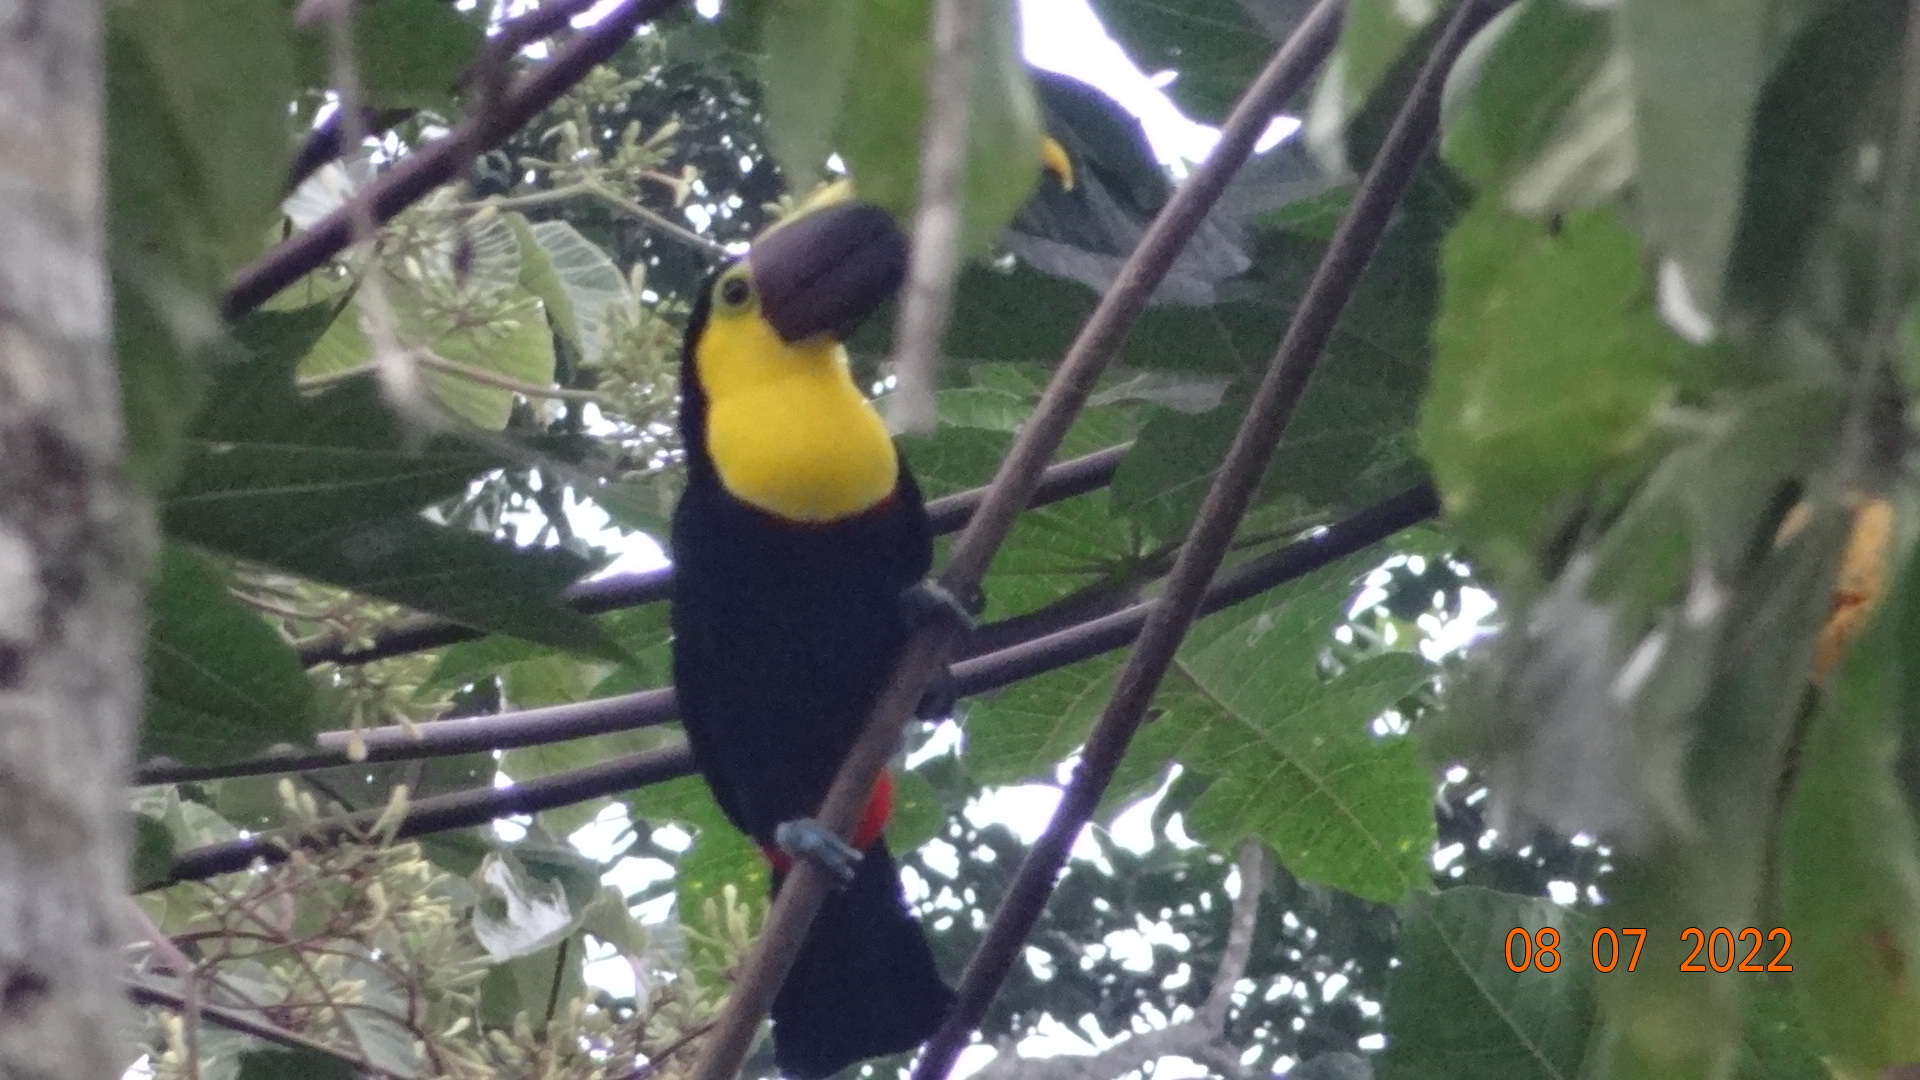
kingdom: Animalia
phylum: Chordata
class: Aves
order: Piciformes
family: Ramphastidae
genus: Ramphastos
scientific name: Ramphastos ambiguus
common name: Yellow-throated toucan
